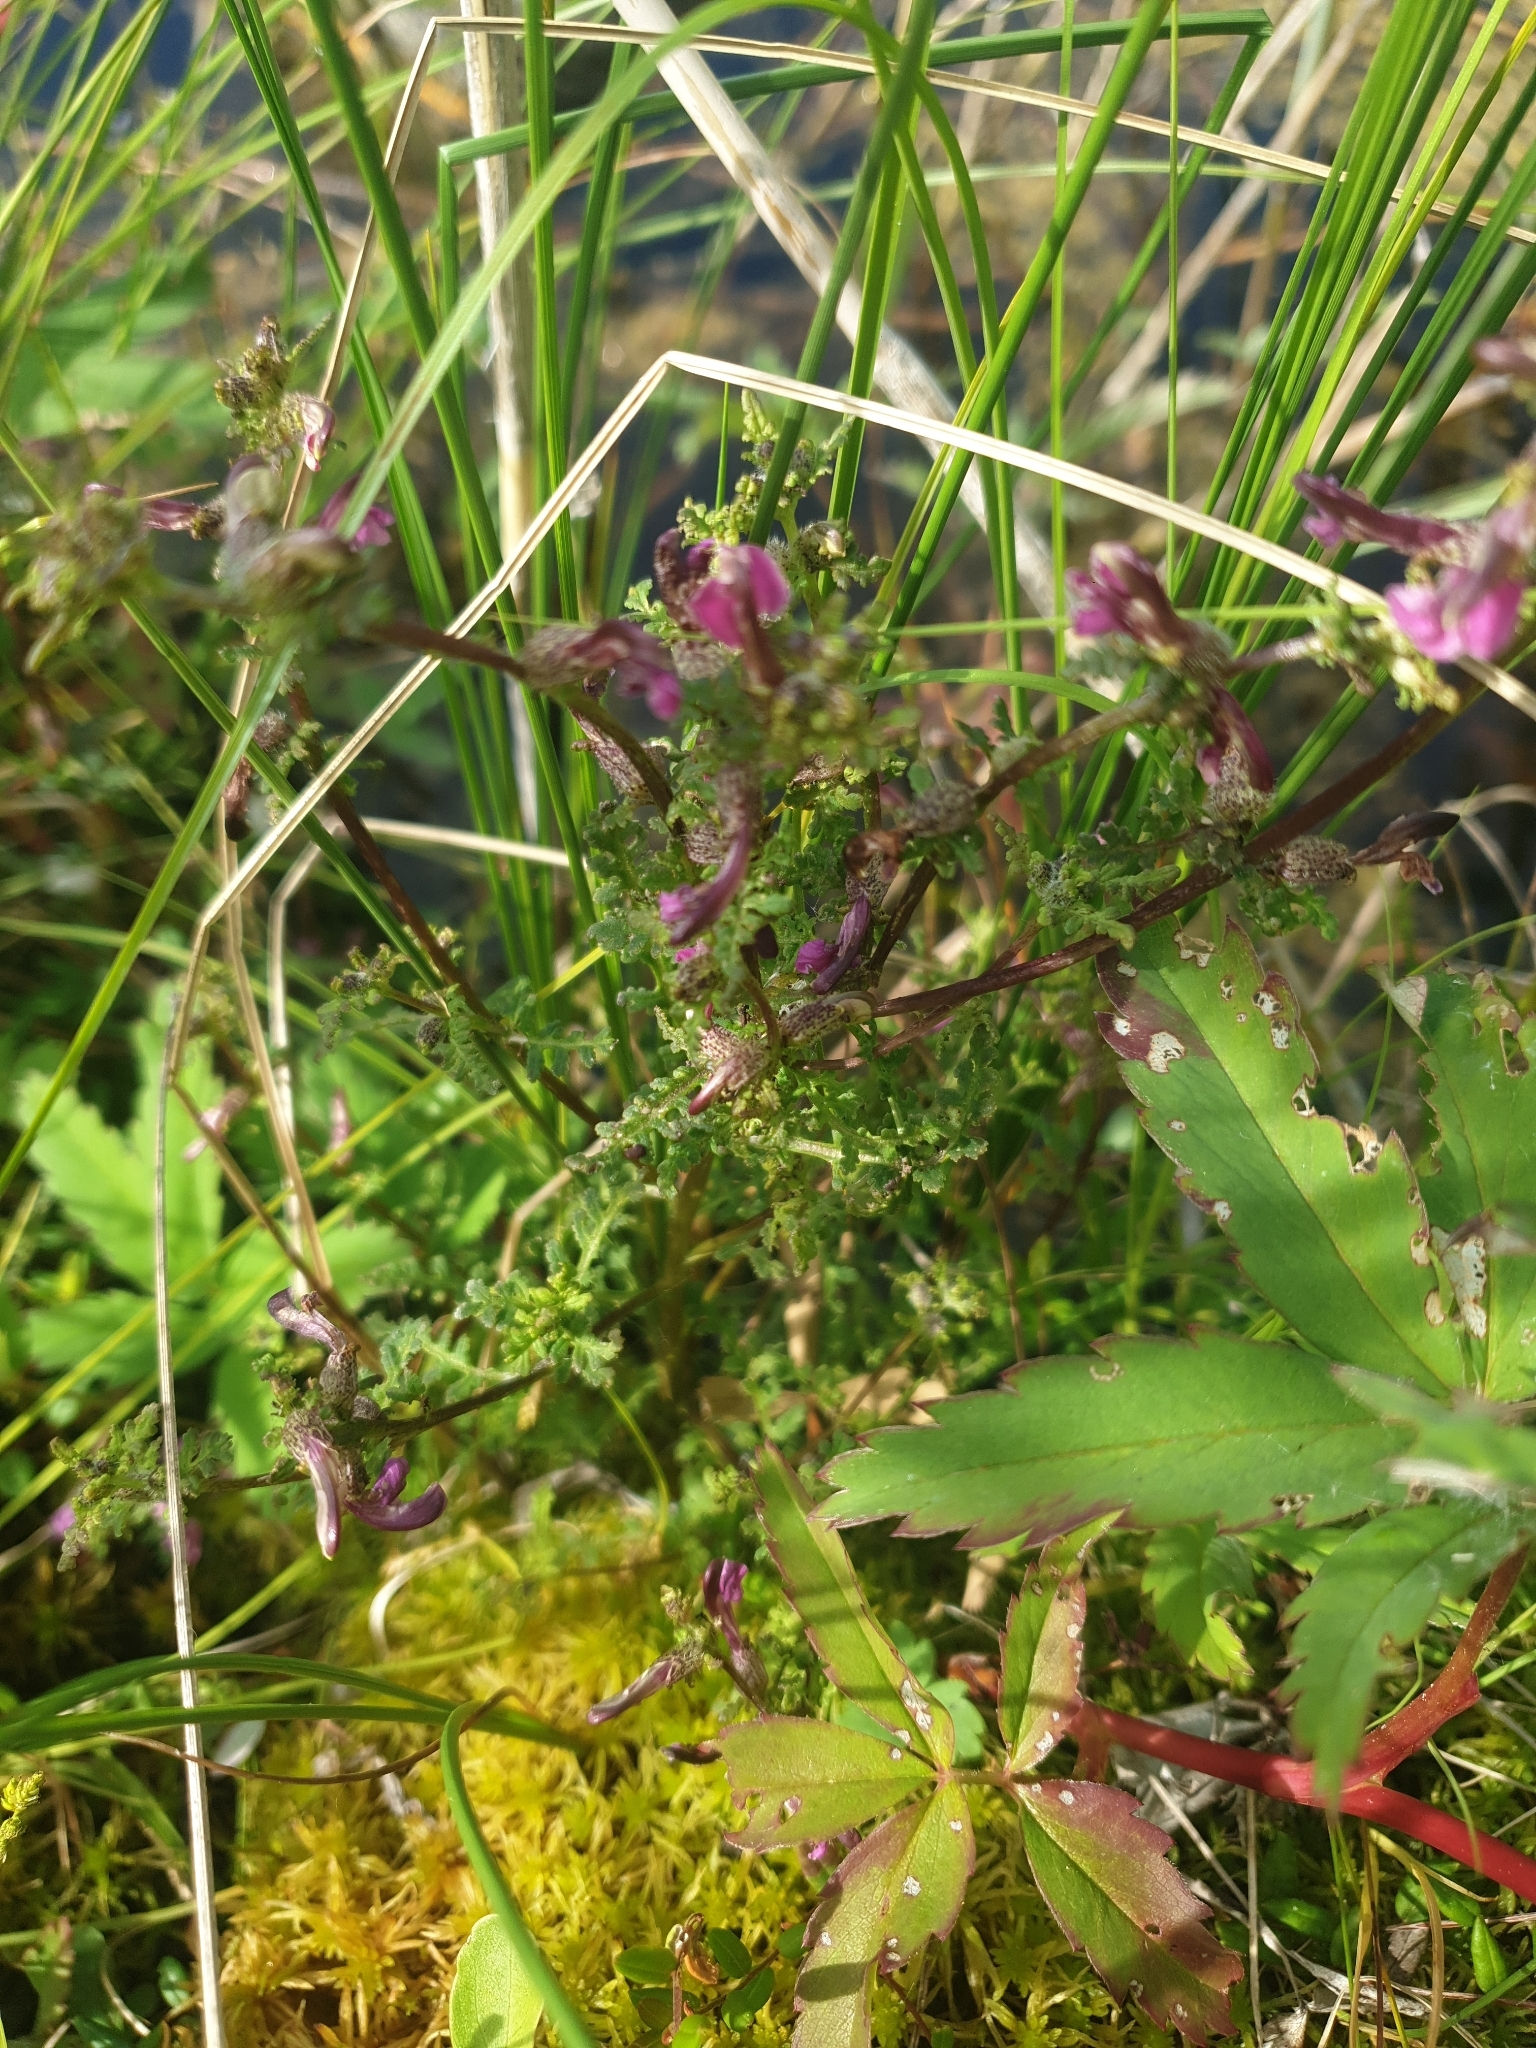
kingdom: Plantae
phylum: Tracheophyta
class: Magnoliopsida
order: Lamiales
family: Orobanchaceae
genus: Pedicularis
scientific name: Pedicularis palustris
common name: Marsh lousewort
